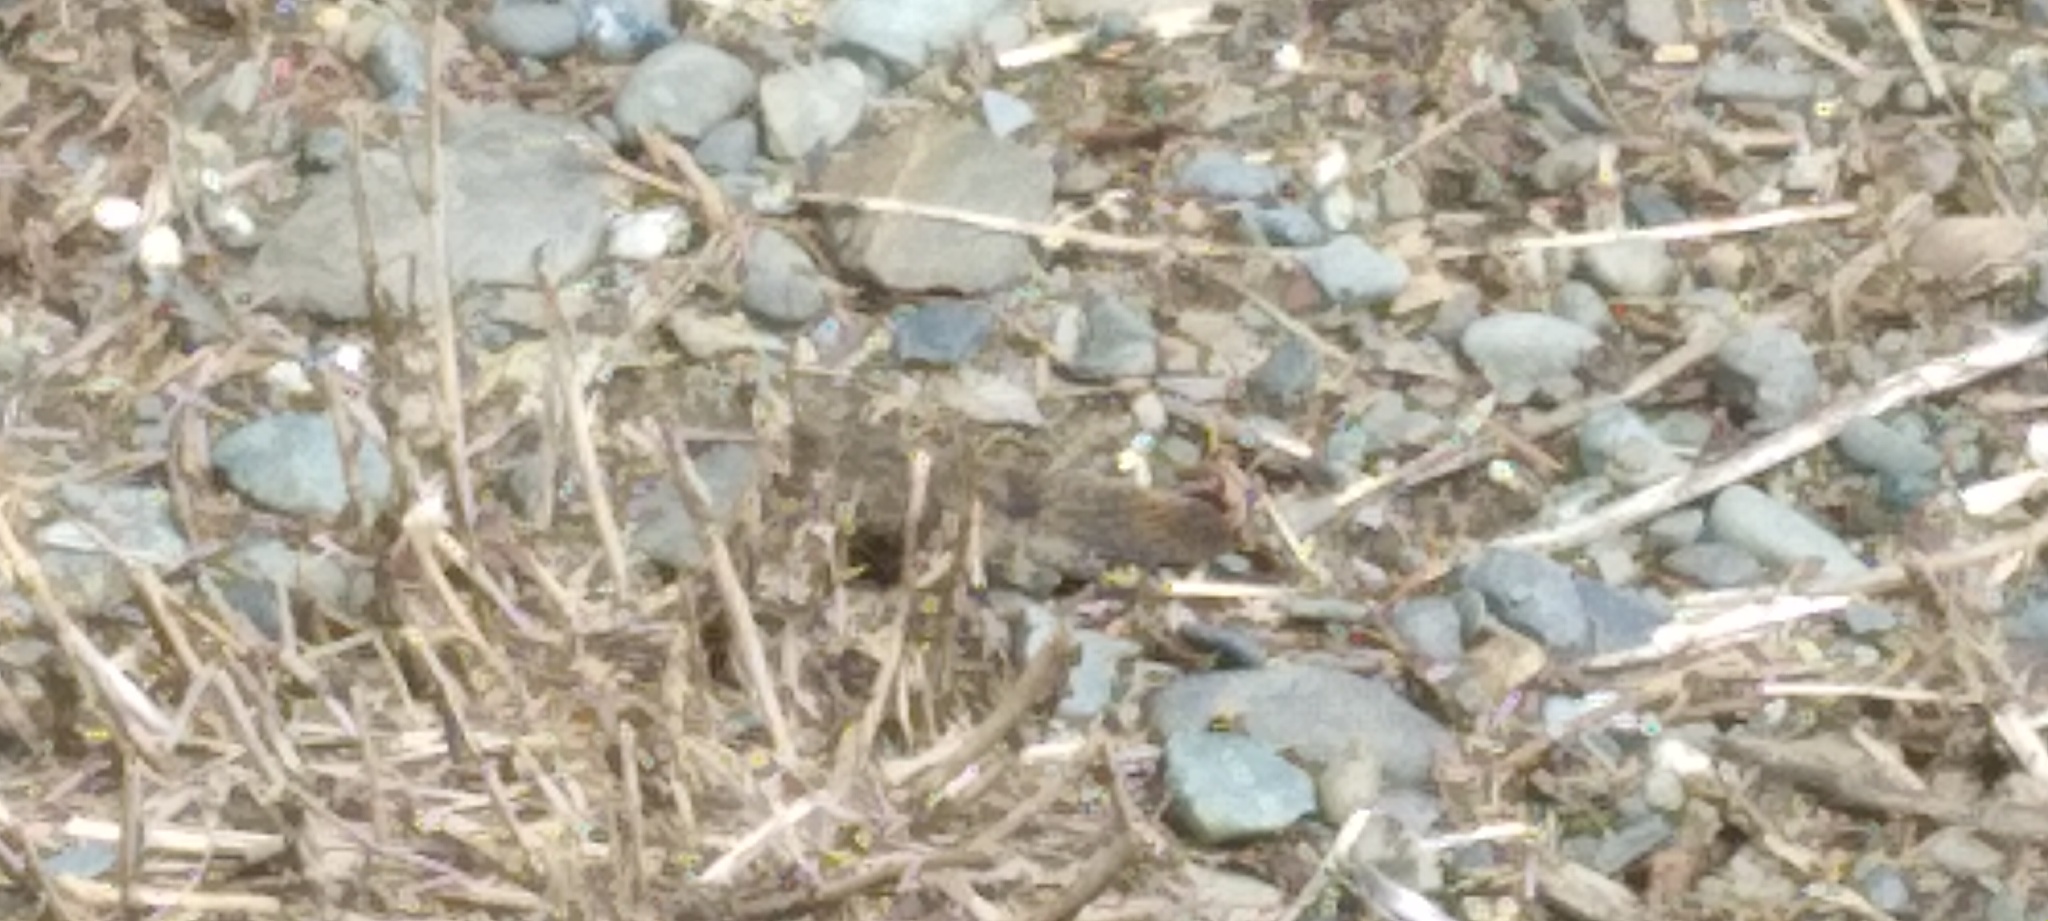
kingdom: Animalia
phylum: Arthropoda
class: Insecta
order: Orthoptera
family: Acrididae
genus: Dissosteira
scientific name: Dissosteira carolina
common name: Carolina grasshopper
